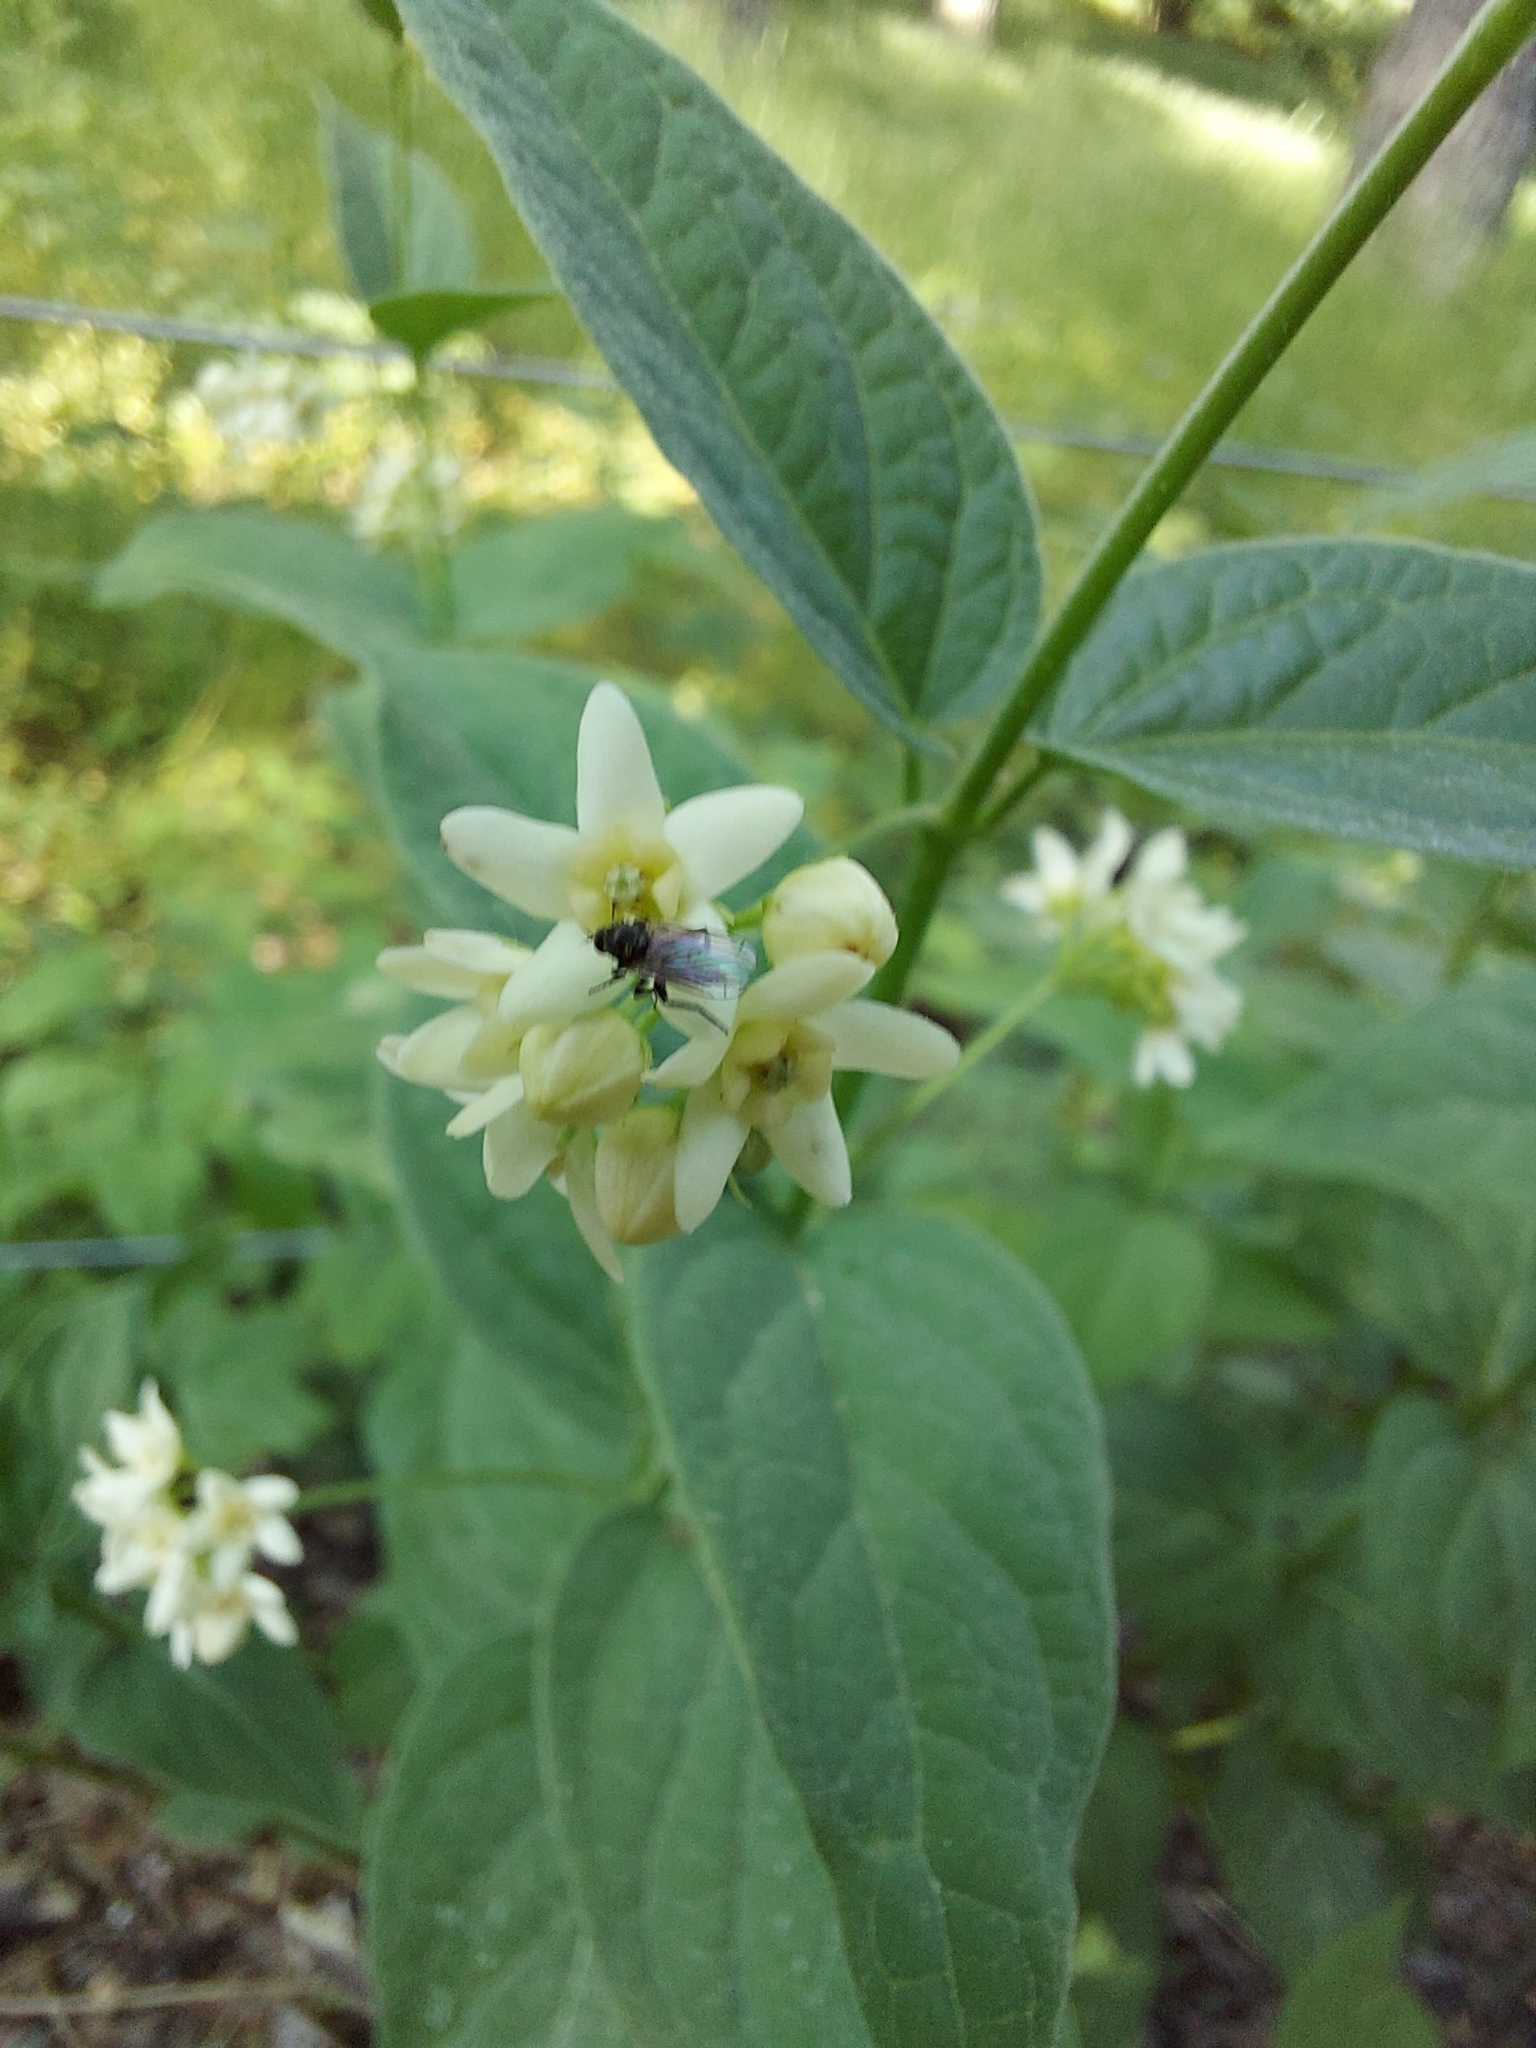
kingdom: Plantae
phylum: Tracheophyta
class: Magnoliopsida
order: Gentianales
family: Apocynaceae
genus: Vincetoxicum
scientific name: Vincetoxicum hirundinaria
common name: White swallowwort
